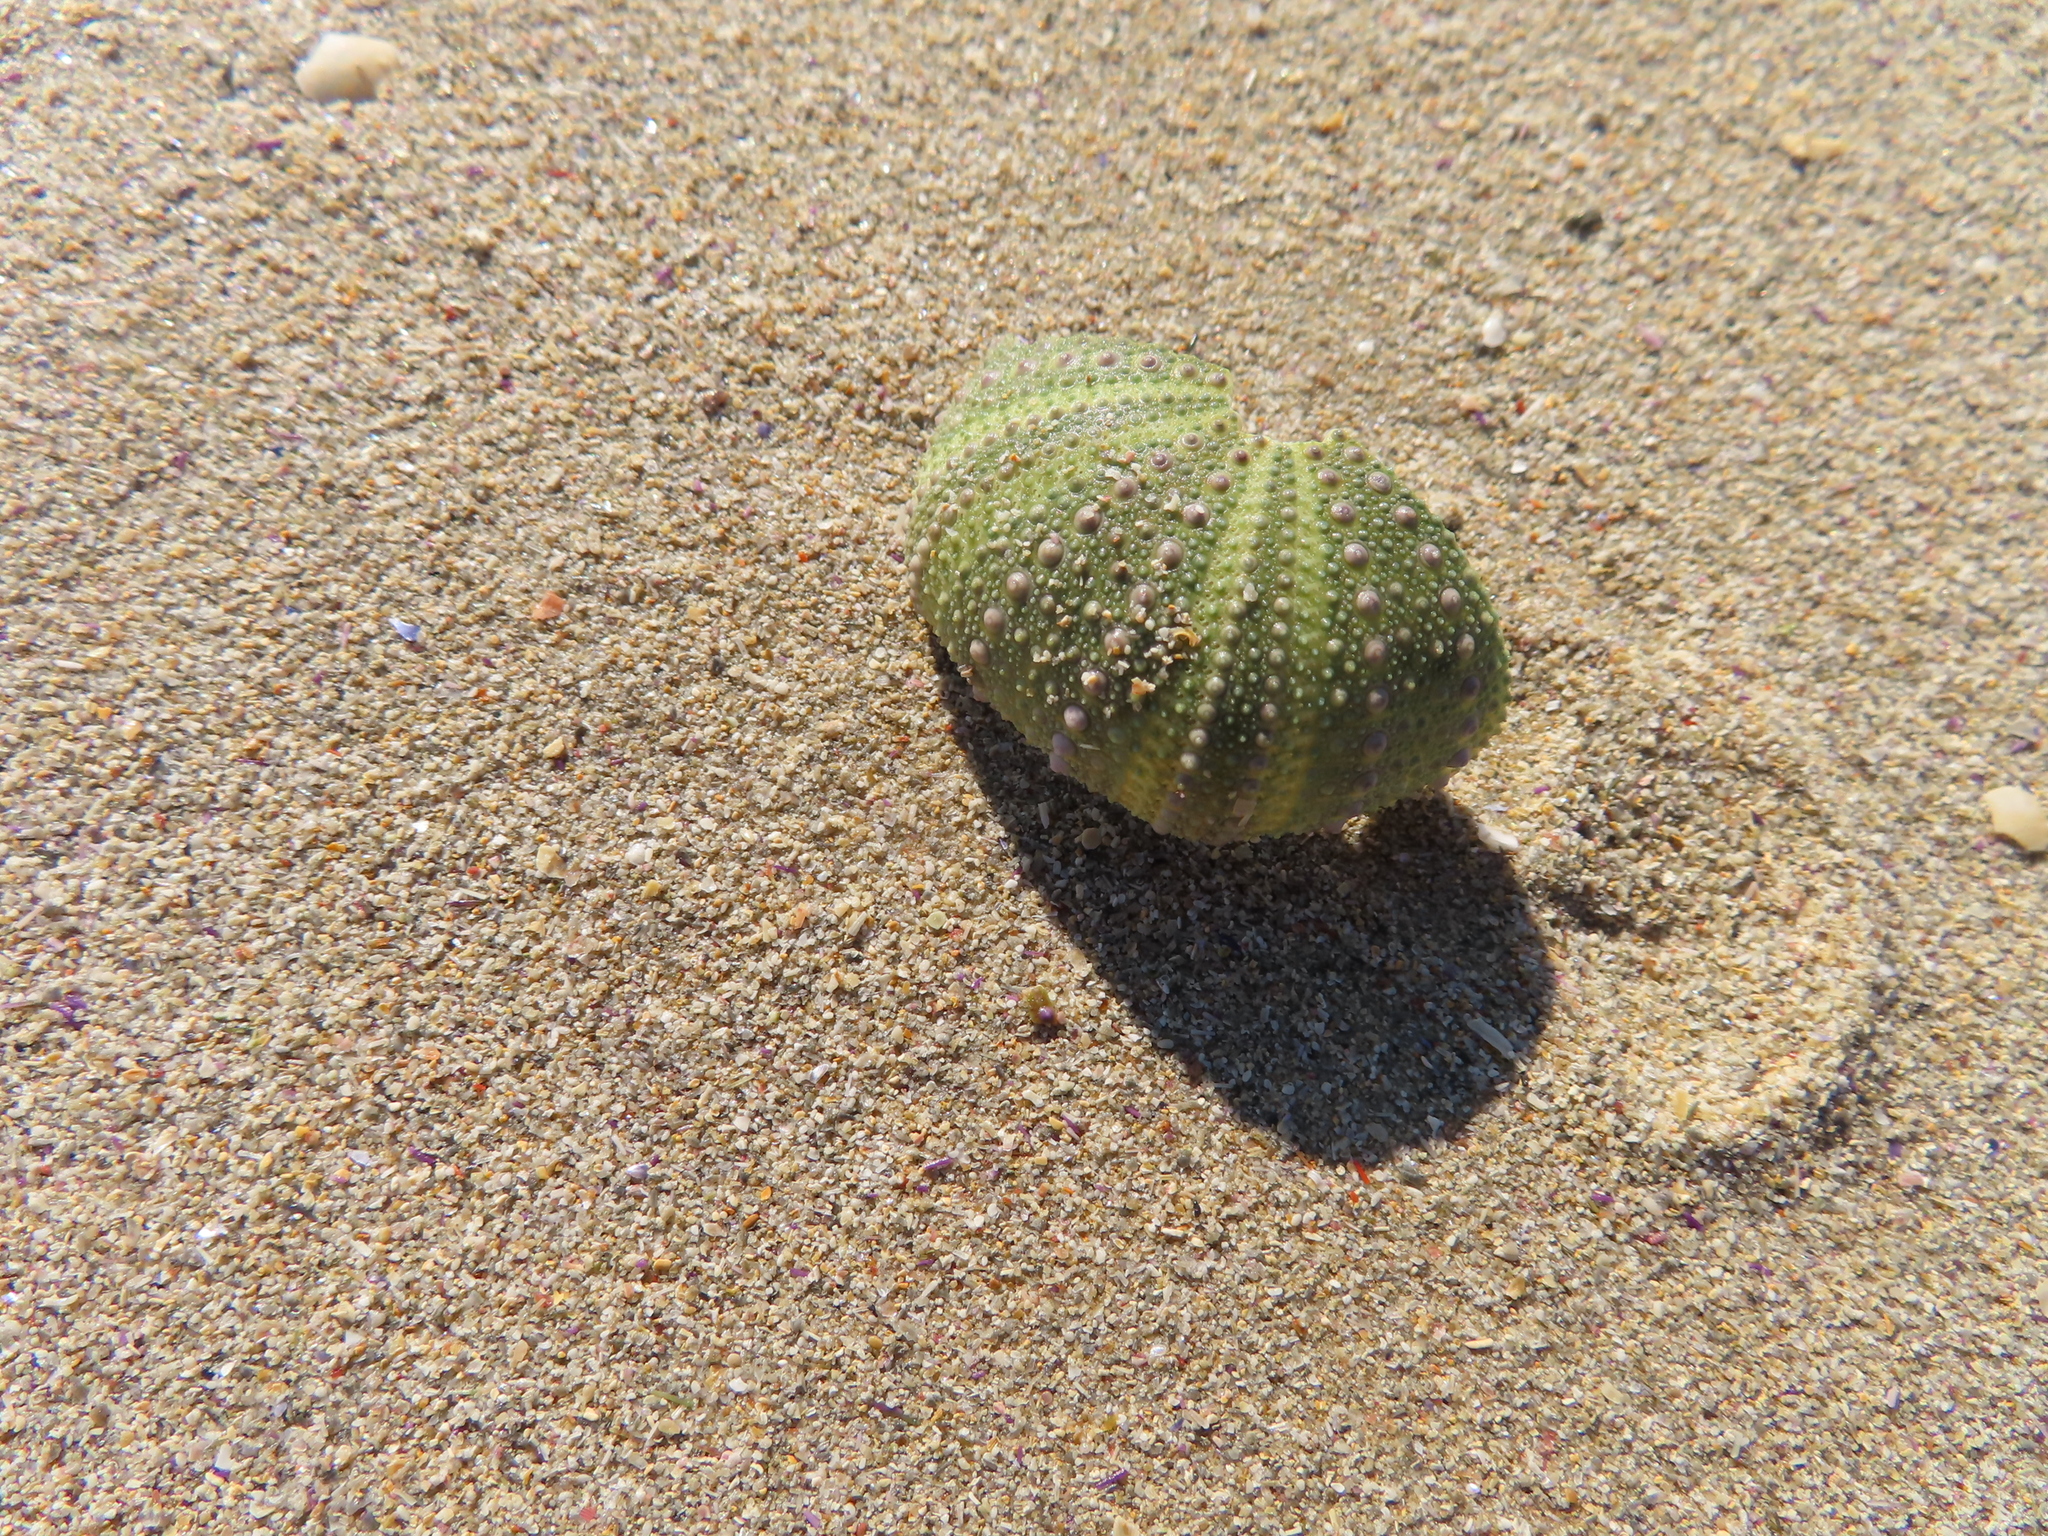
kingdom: Animalia
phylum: Echinodermata
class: Echinoidea
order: Camarodonta
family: Parechinidae
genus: Parechinus
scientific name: Parechinus angulosus
